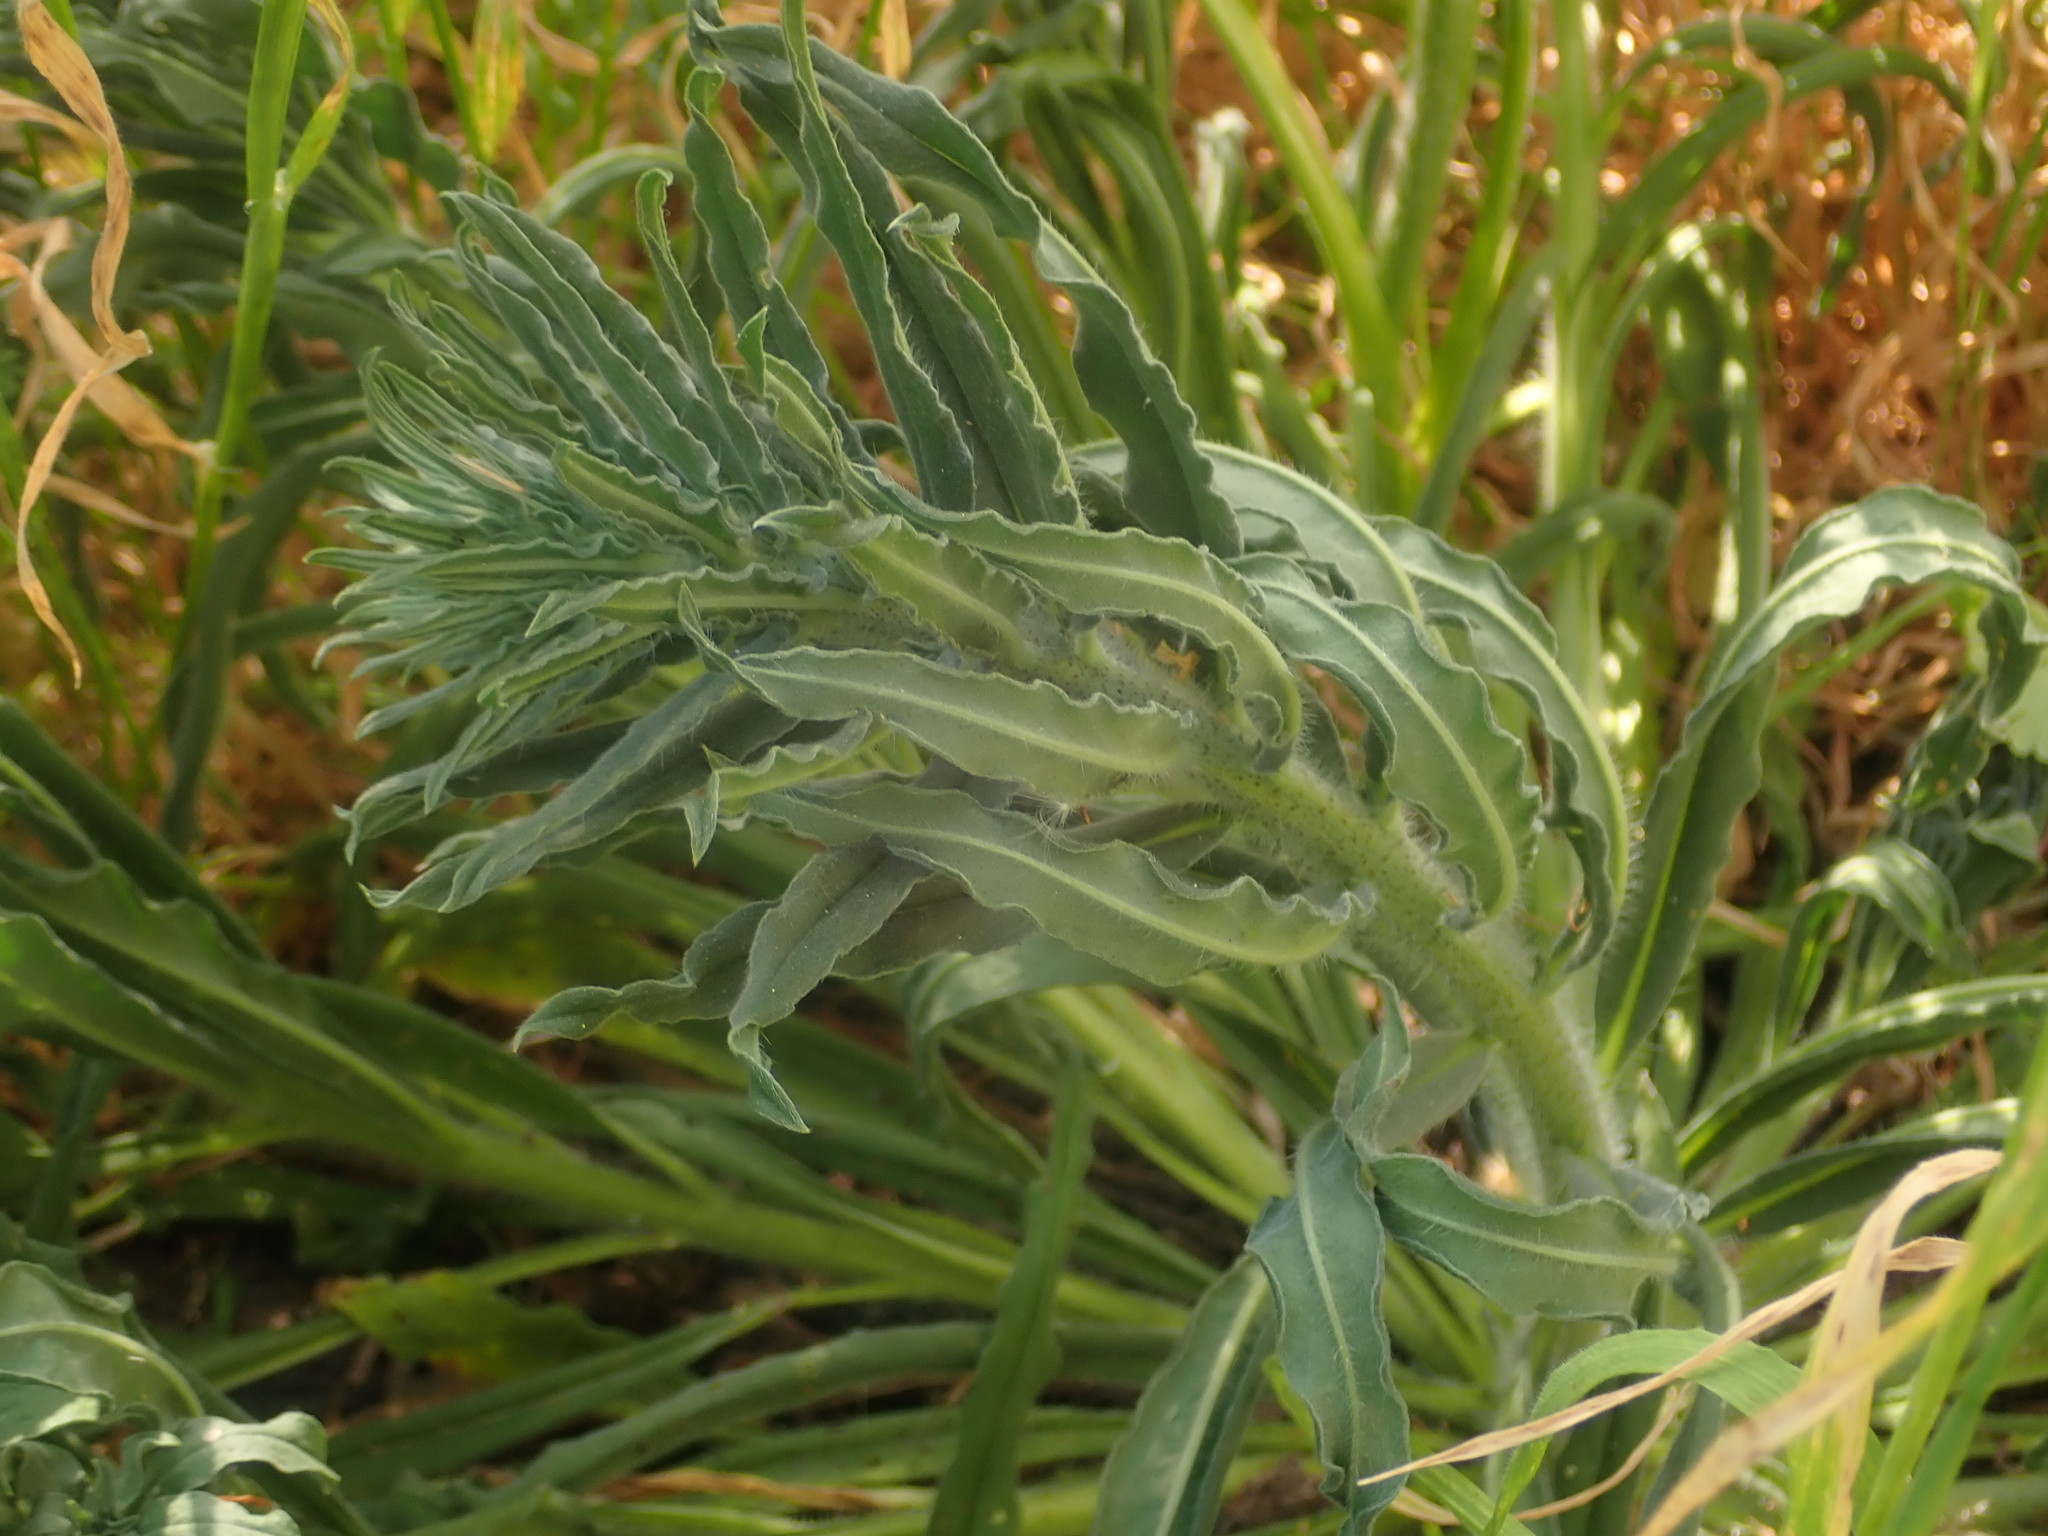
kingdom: Plantae
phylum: Tracheophyta
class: Magnoliopsida
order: Boraginales
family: Boraginaceae
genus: Echium
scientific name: Echium vulgare
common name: Common viper's bugloss
